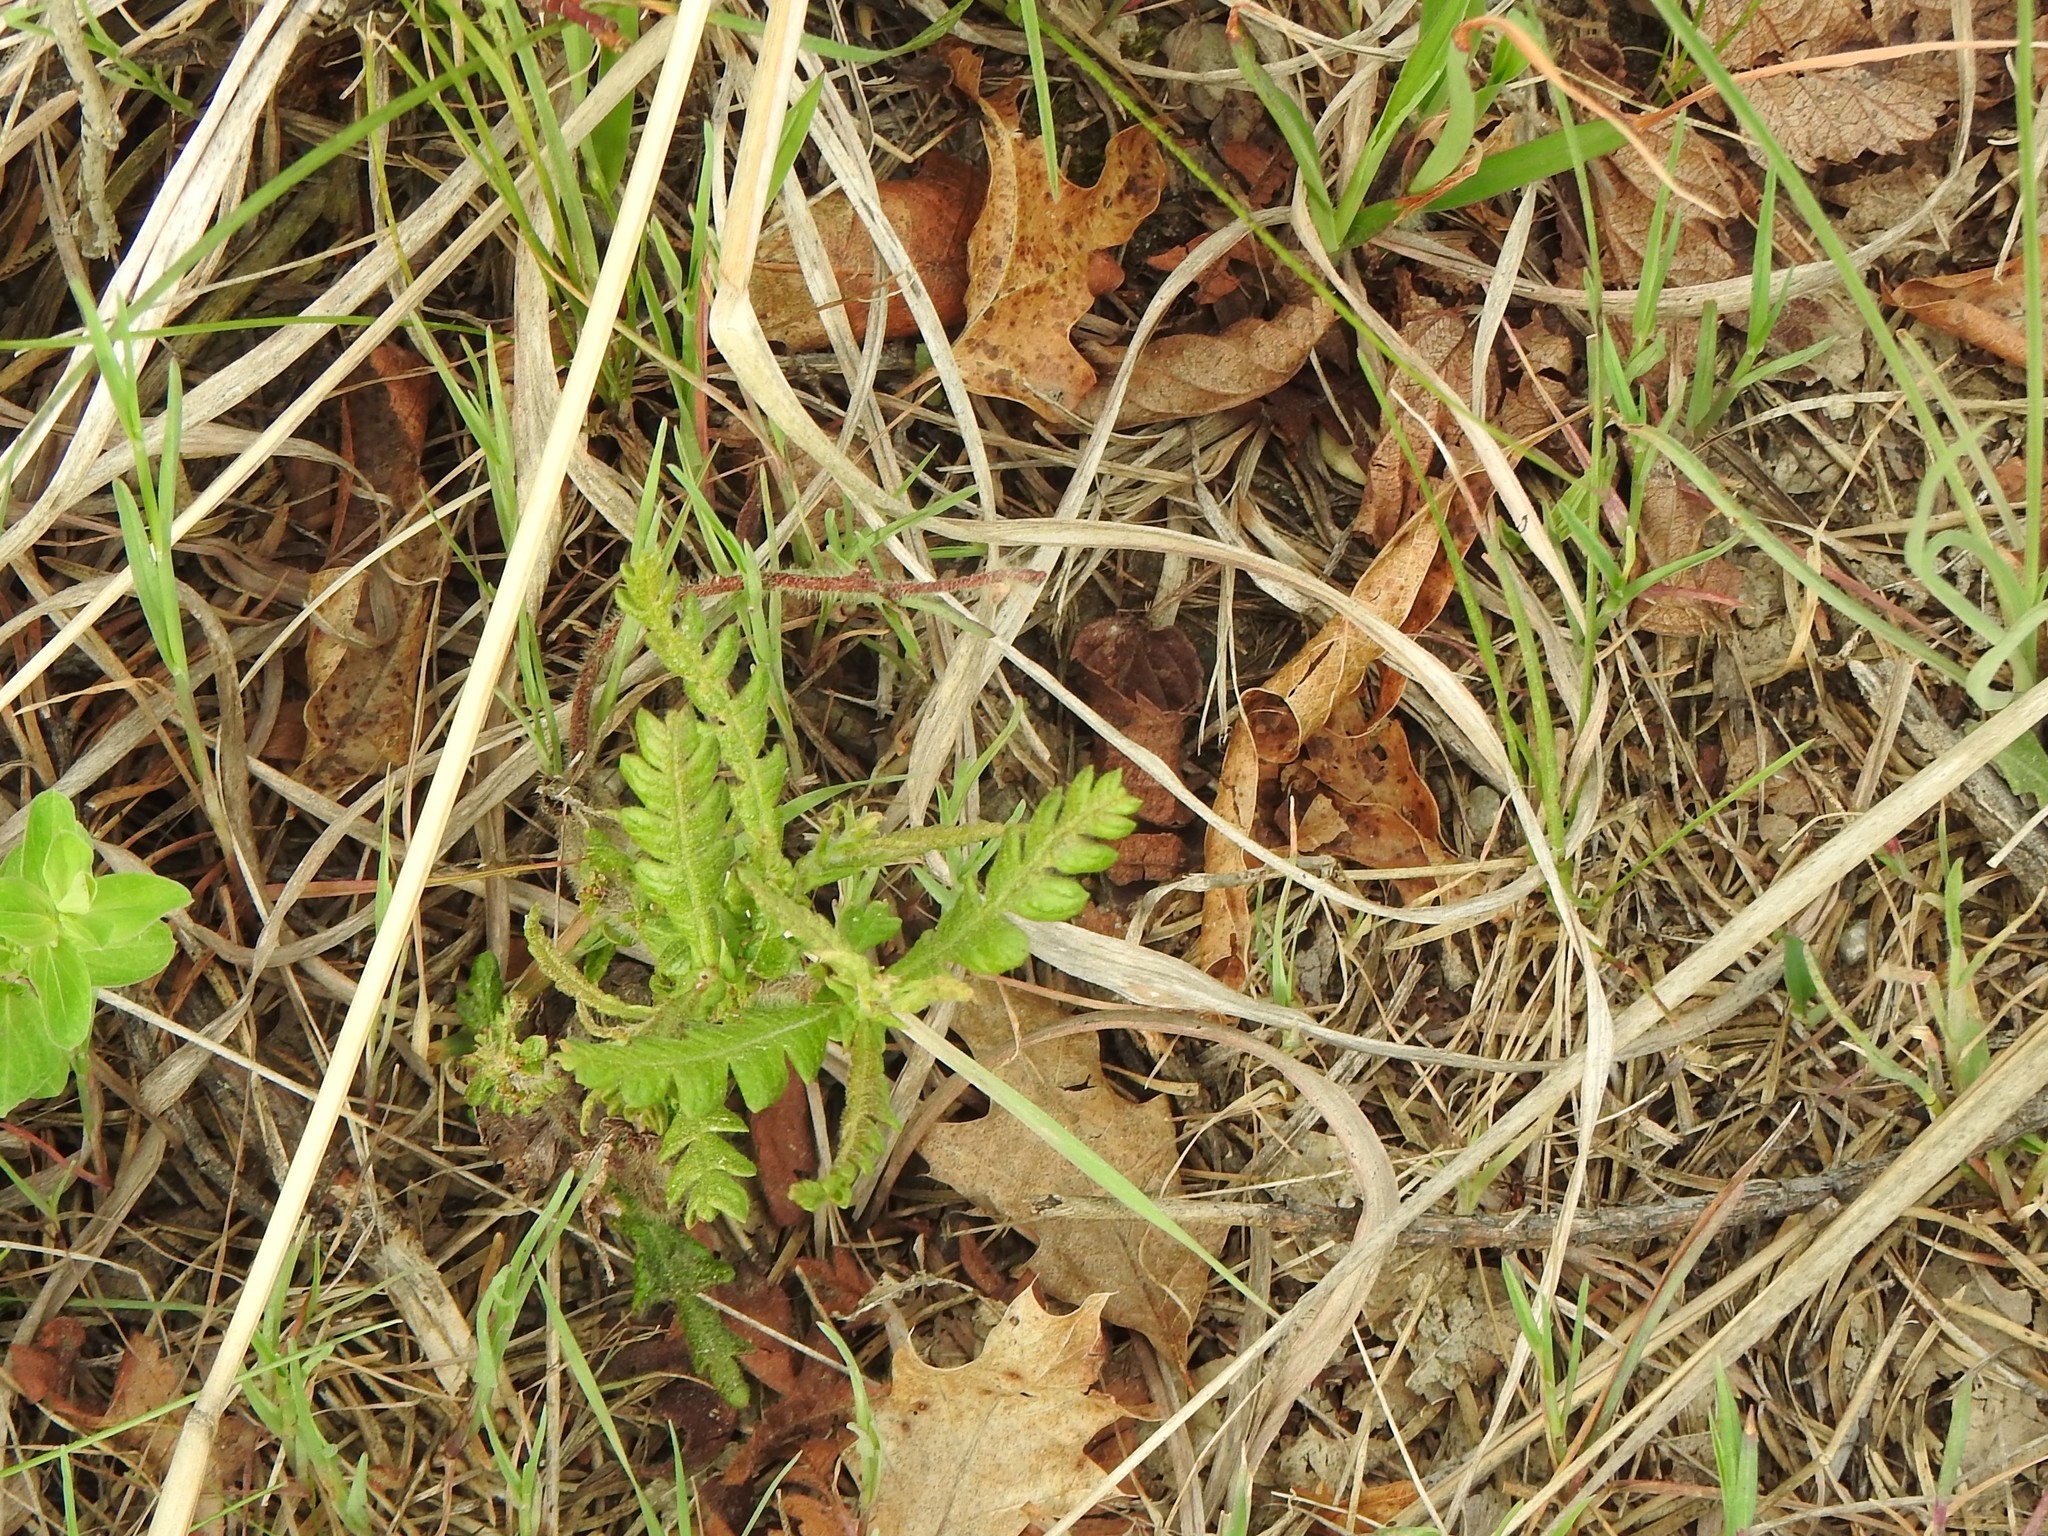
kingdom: Plantae
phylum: Tracheophyta
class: Magnoliopsida
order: Fagales
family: Myricaceae
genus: Comptonia
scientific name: Comptonia peregrina
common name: Sweet-fern
